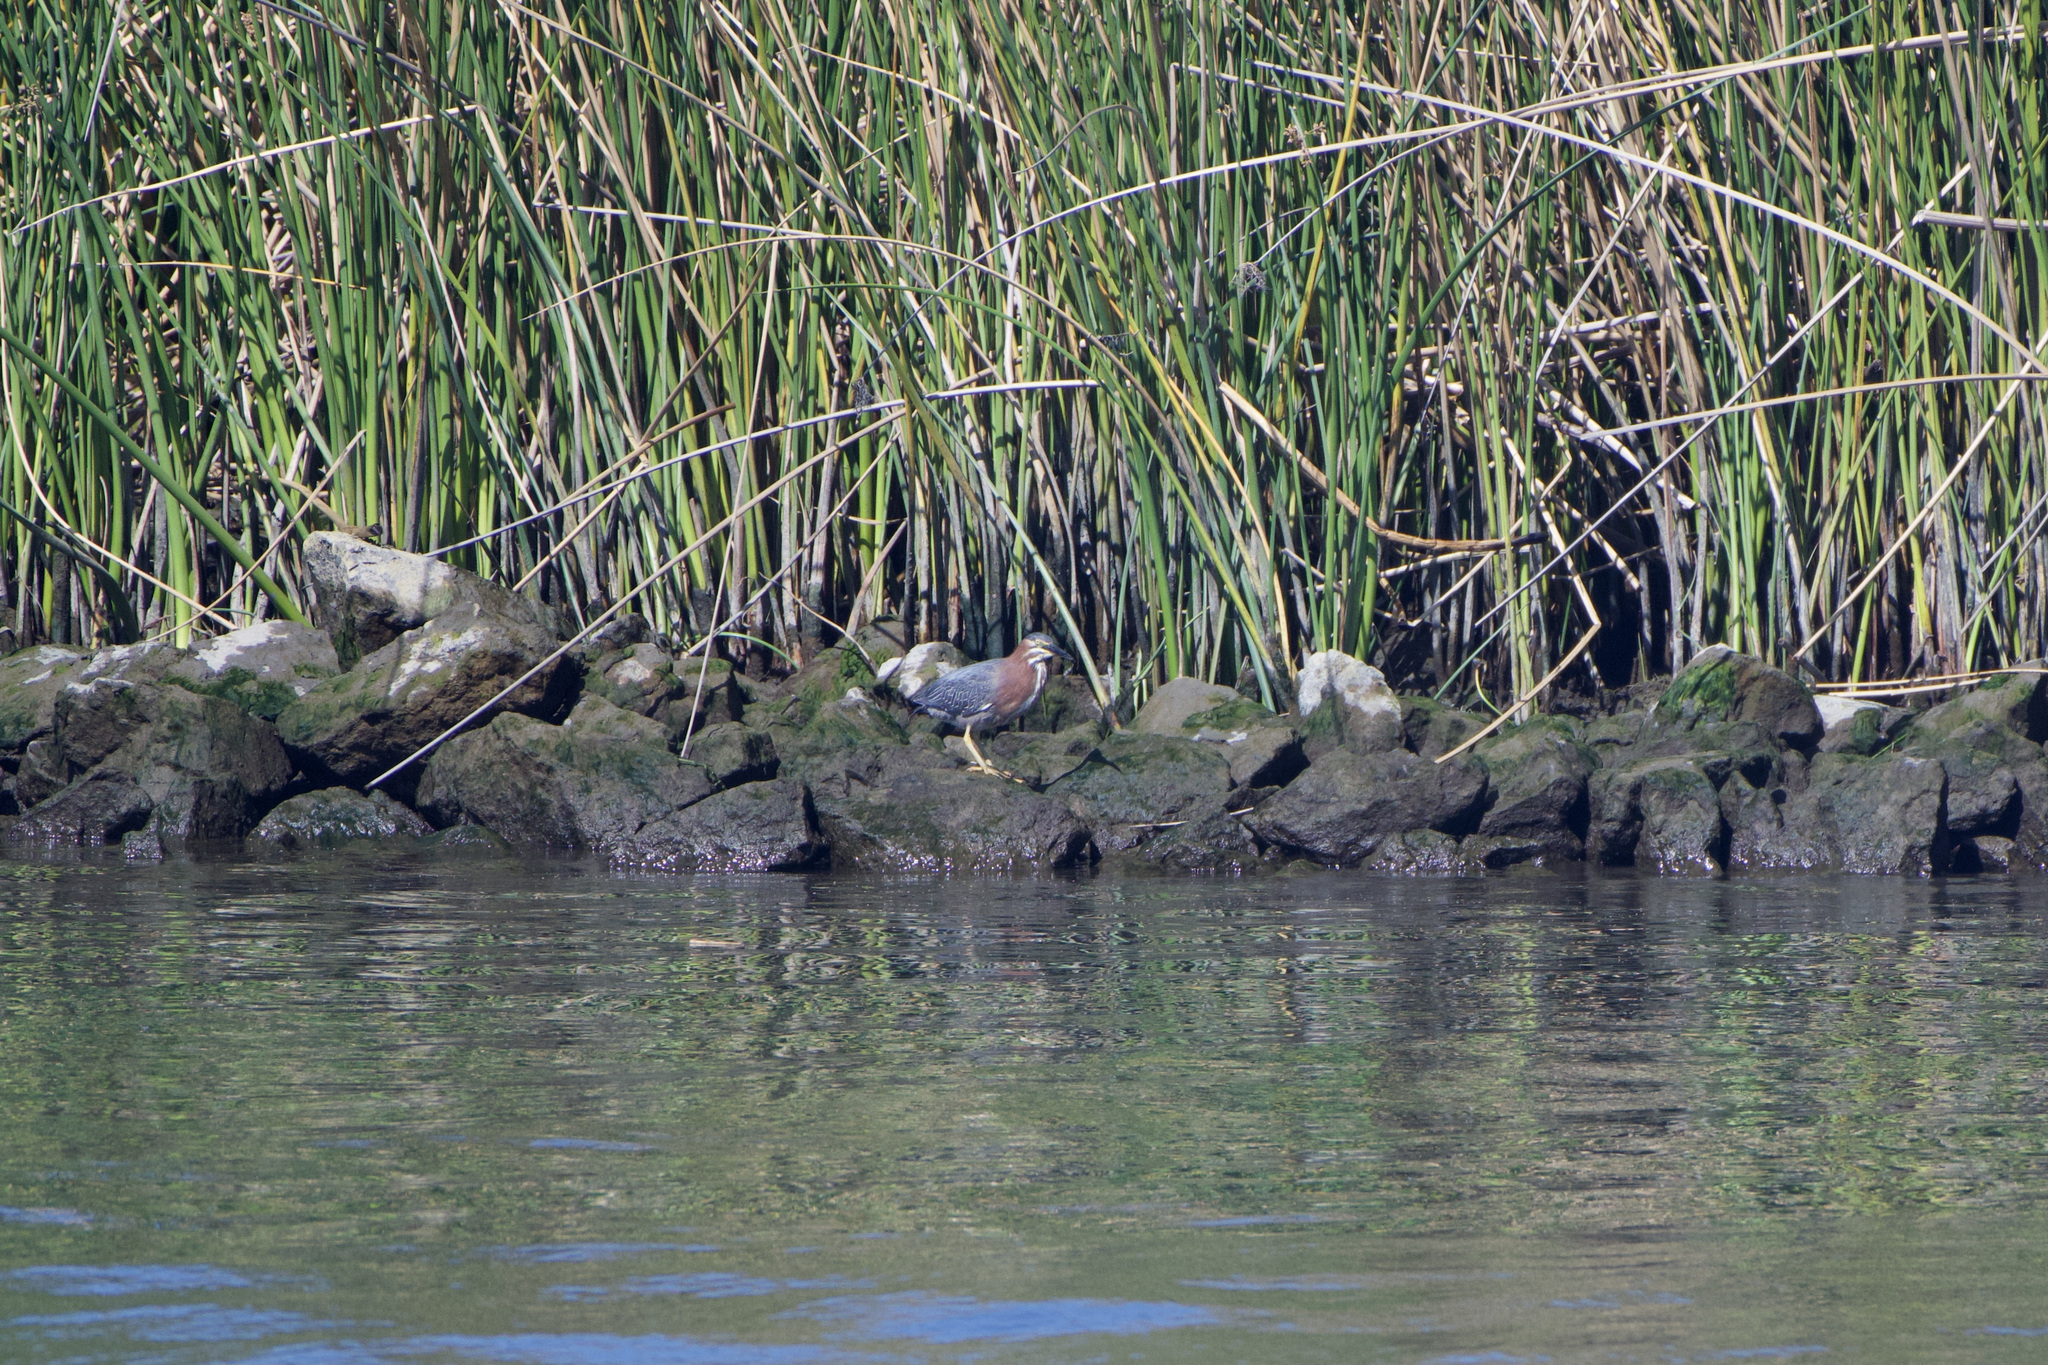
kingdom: Animalia
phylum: Chordata
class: Aves
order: Pelecaniformes
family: Ardeidae
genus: Butorides
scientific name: Butorides virescens
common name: Green heron
